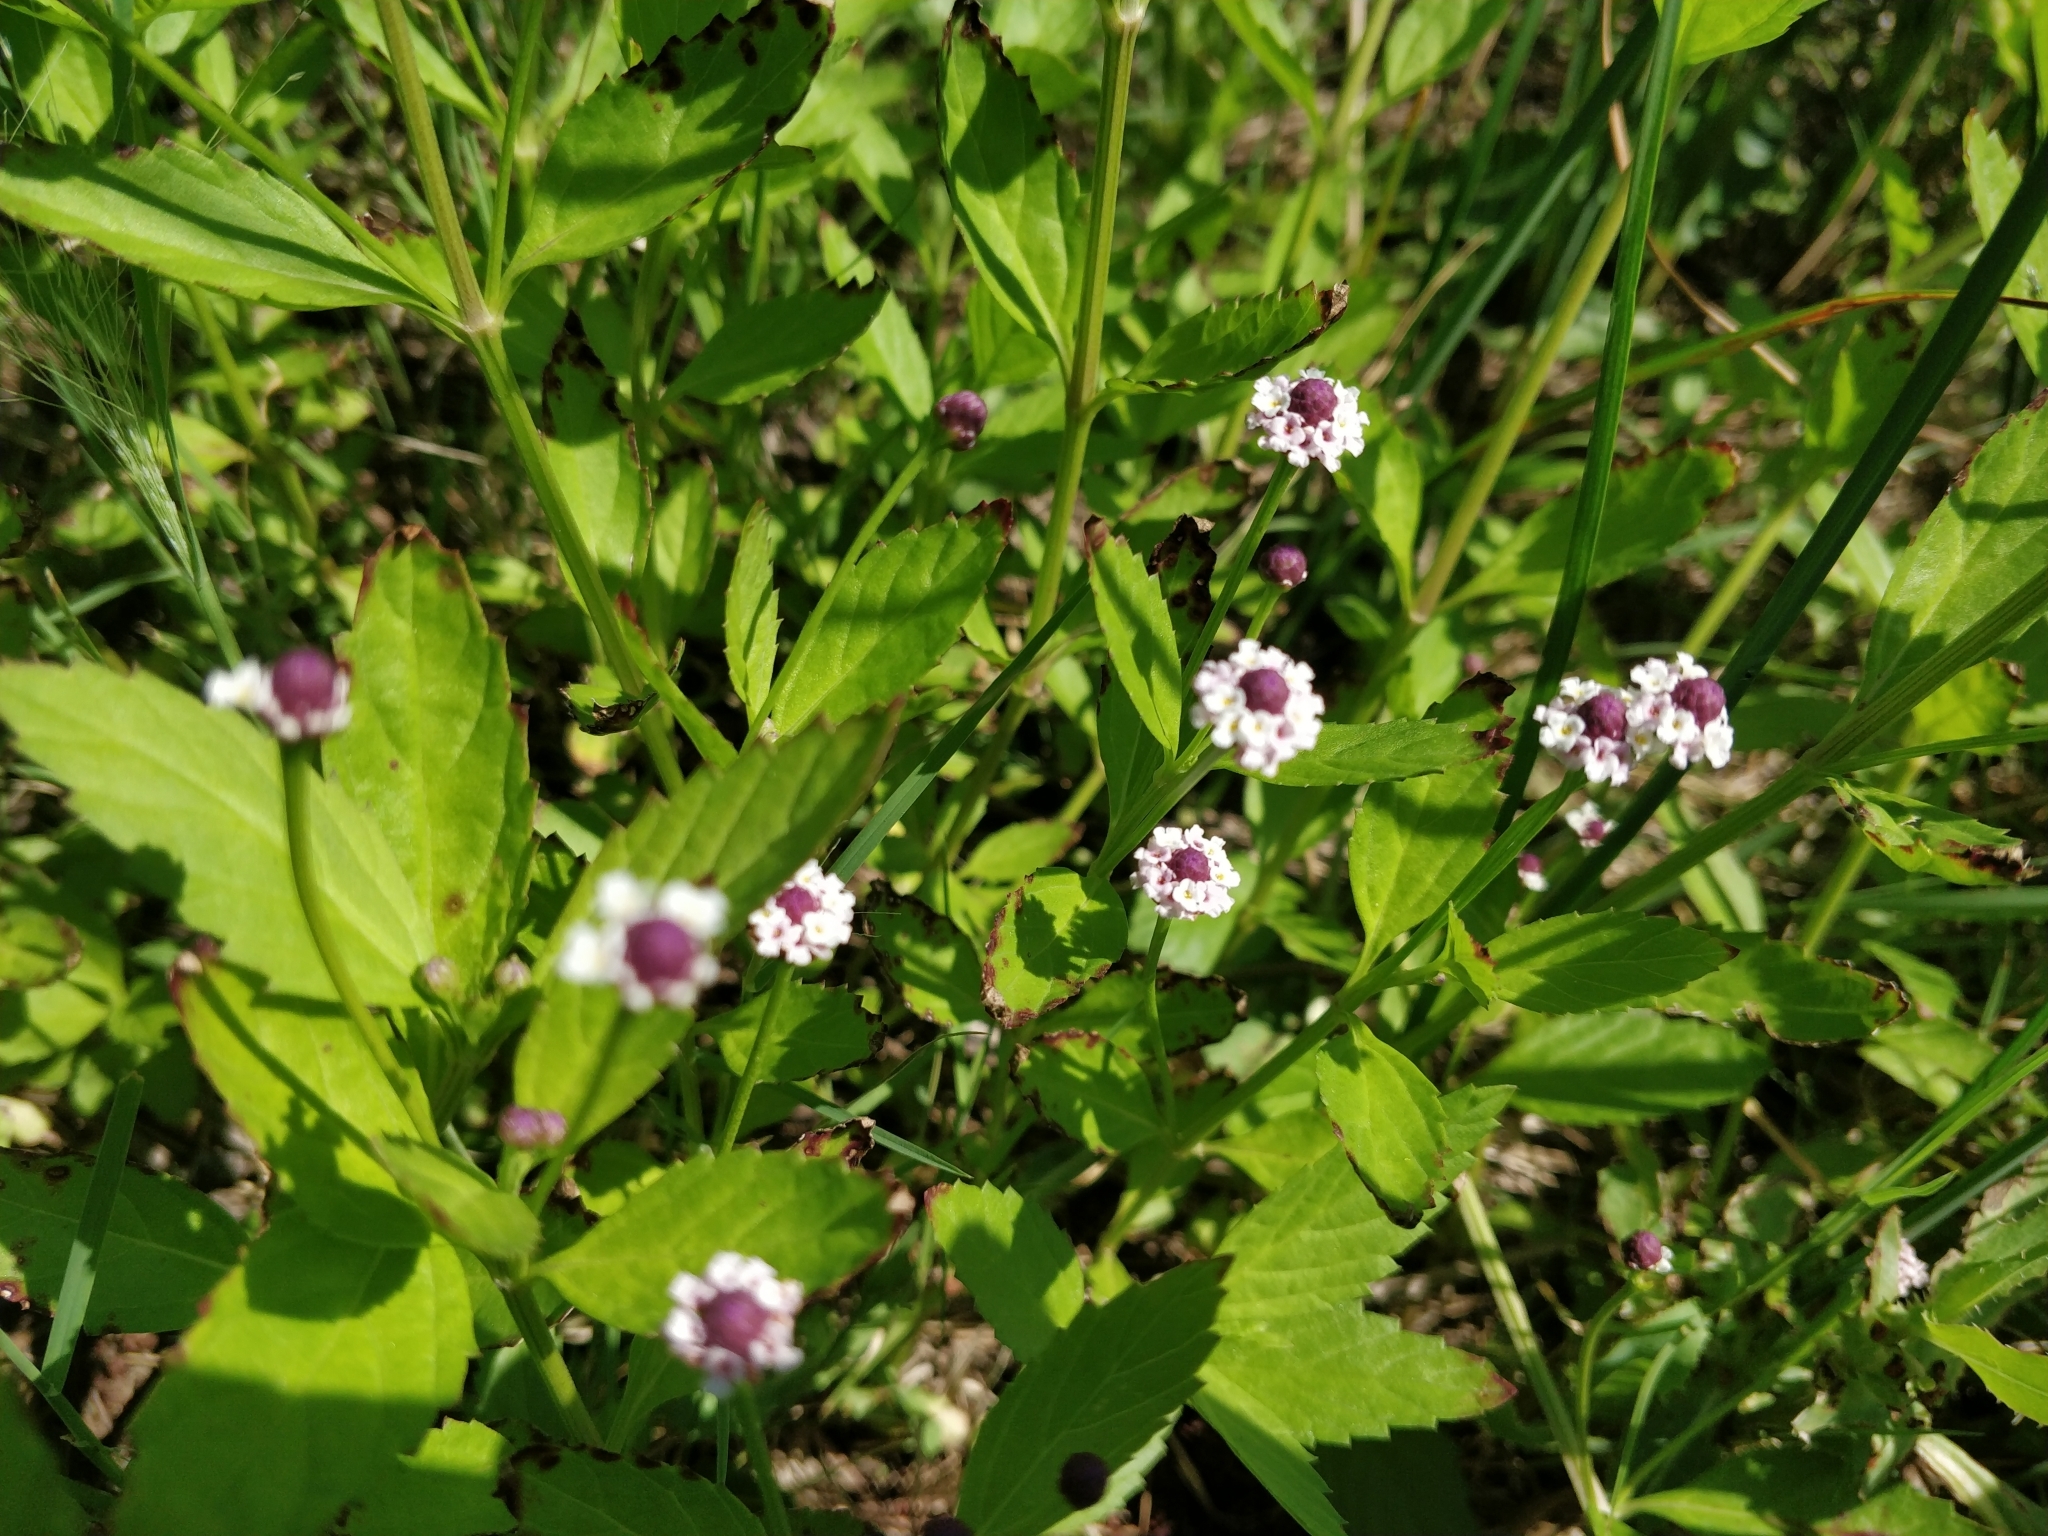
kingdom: Plantae
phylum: Tracheophyta
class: Magnoliopsida
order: Lamiales
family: Verbenaceae
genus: Phyla
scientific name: Phyla lanceolata
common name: Northern fogfruit
